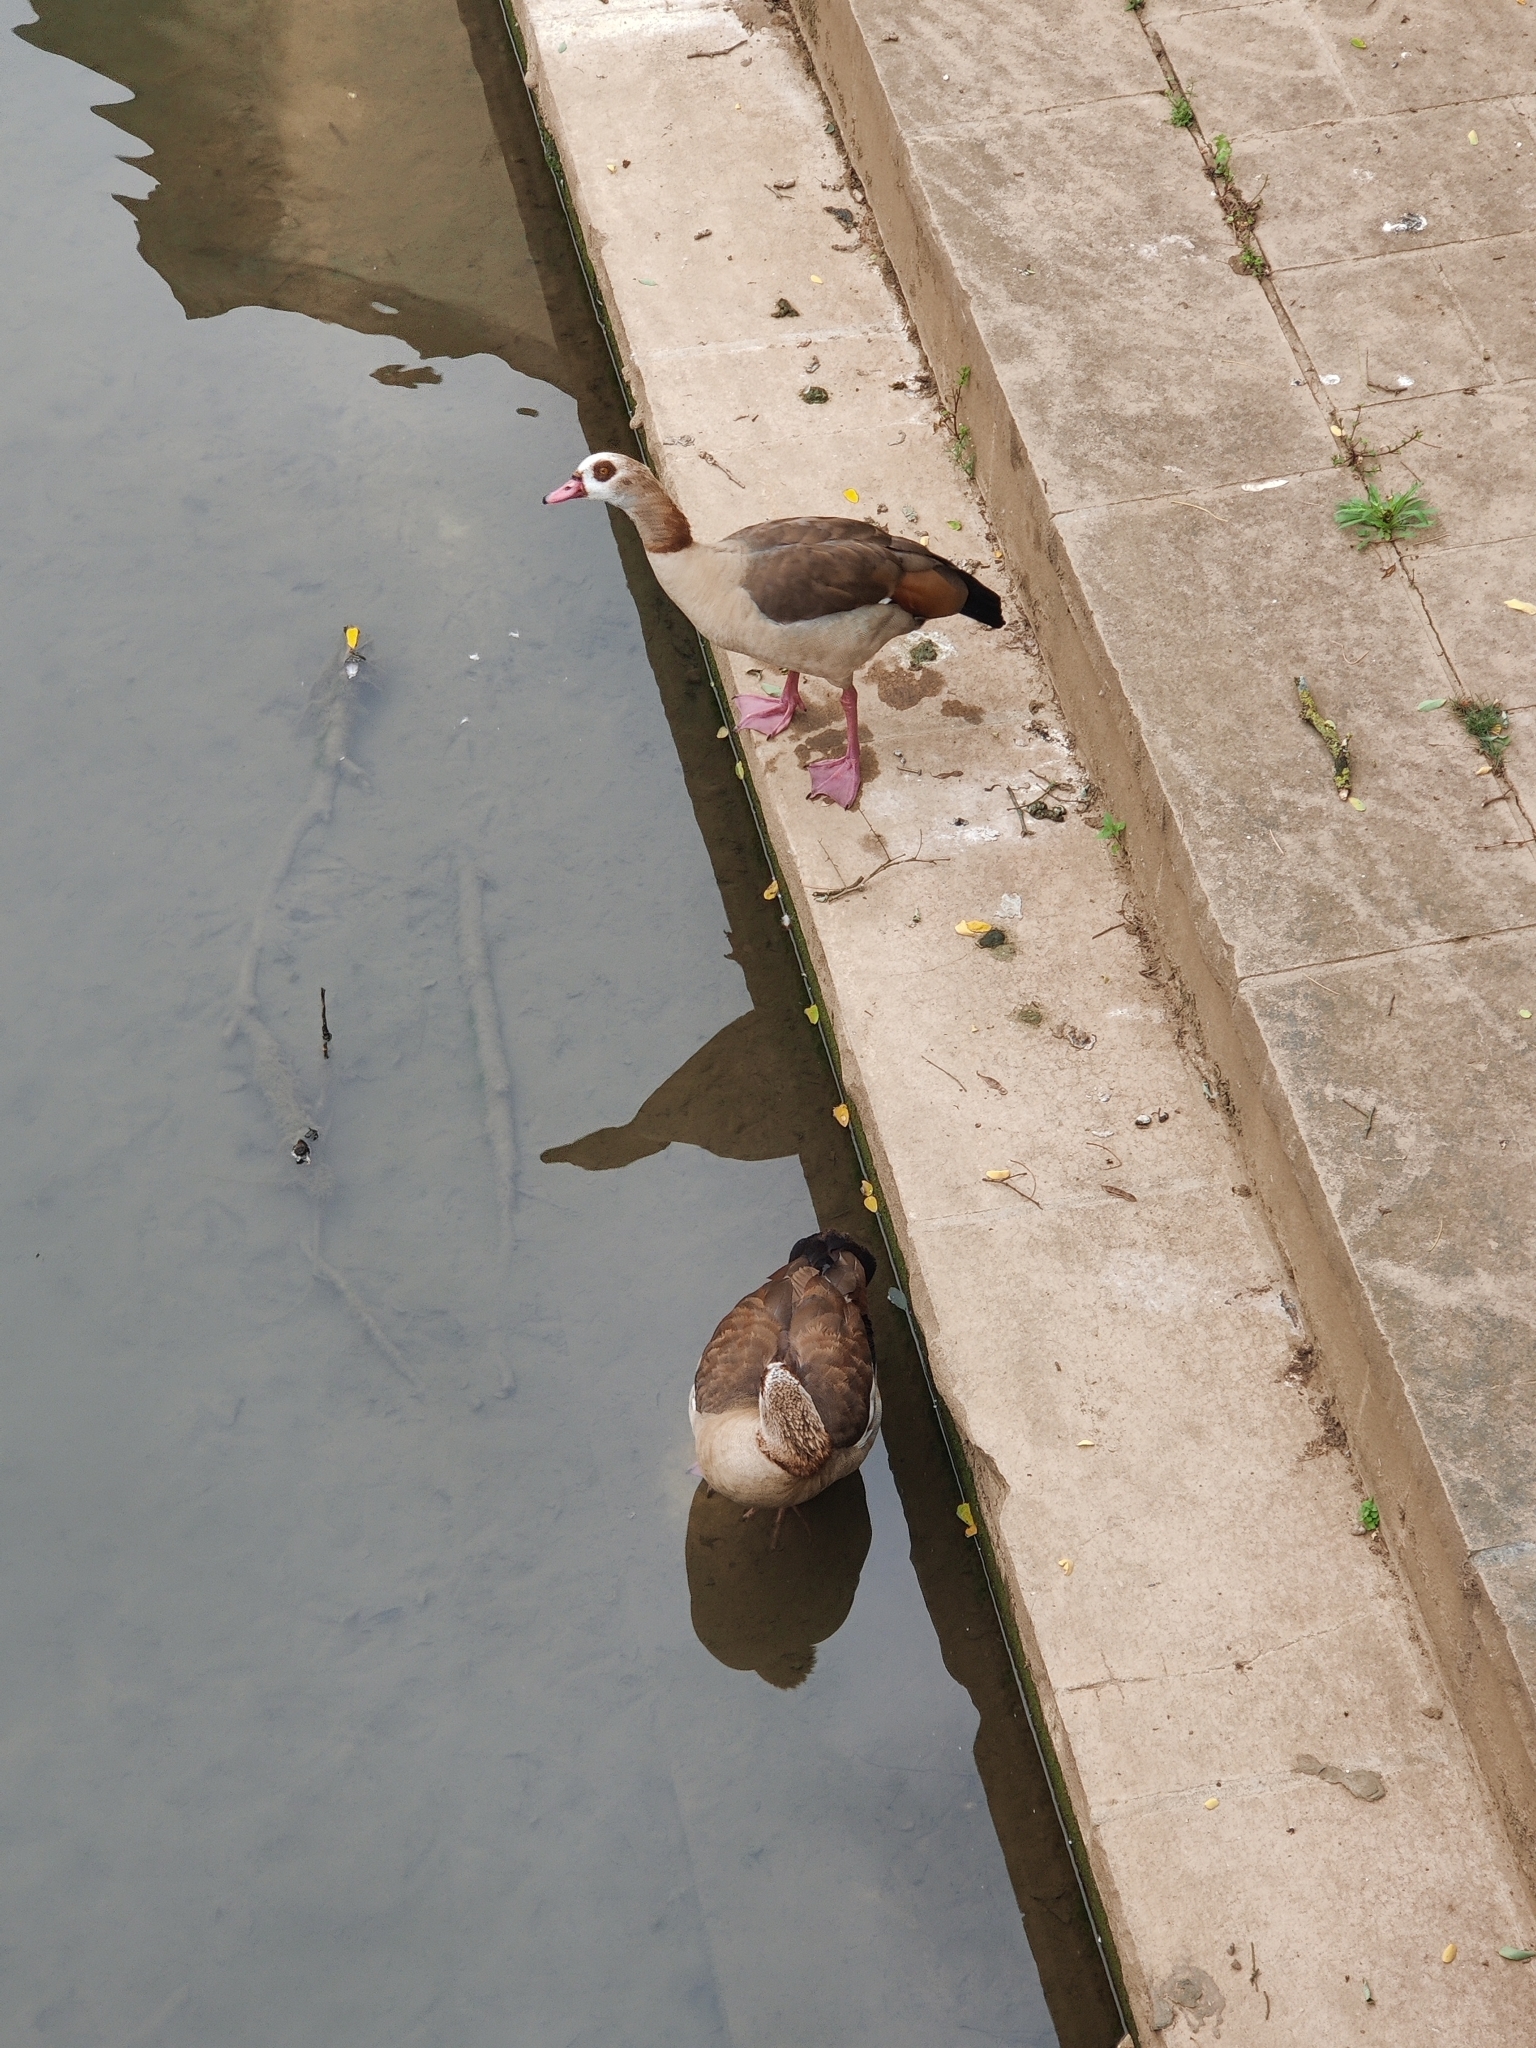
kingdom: Animalia
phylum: Chordata
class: Aves
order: Anseriformes
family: Anatidae
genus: Alopochen
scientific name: Alopochen aegyptiaca
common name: Egyptian goose
